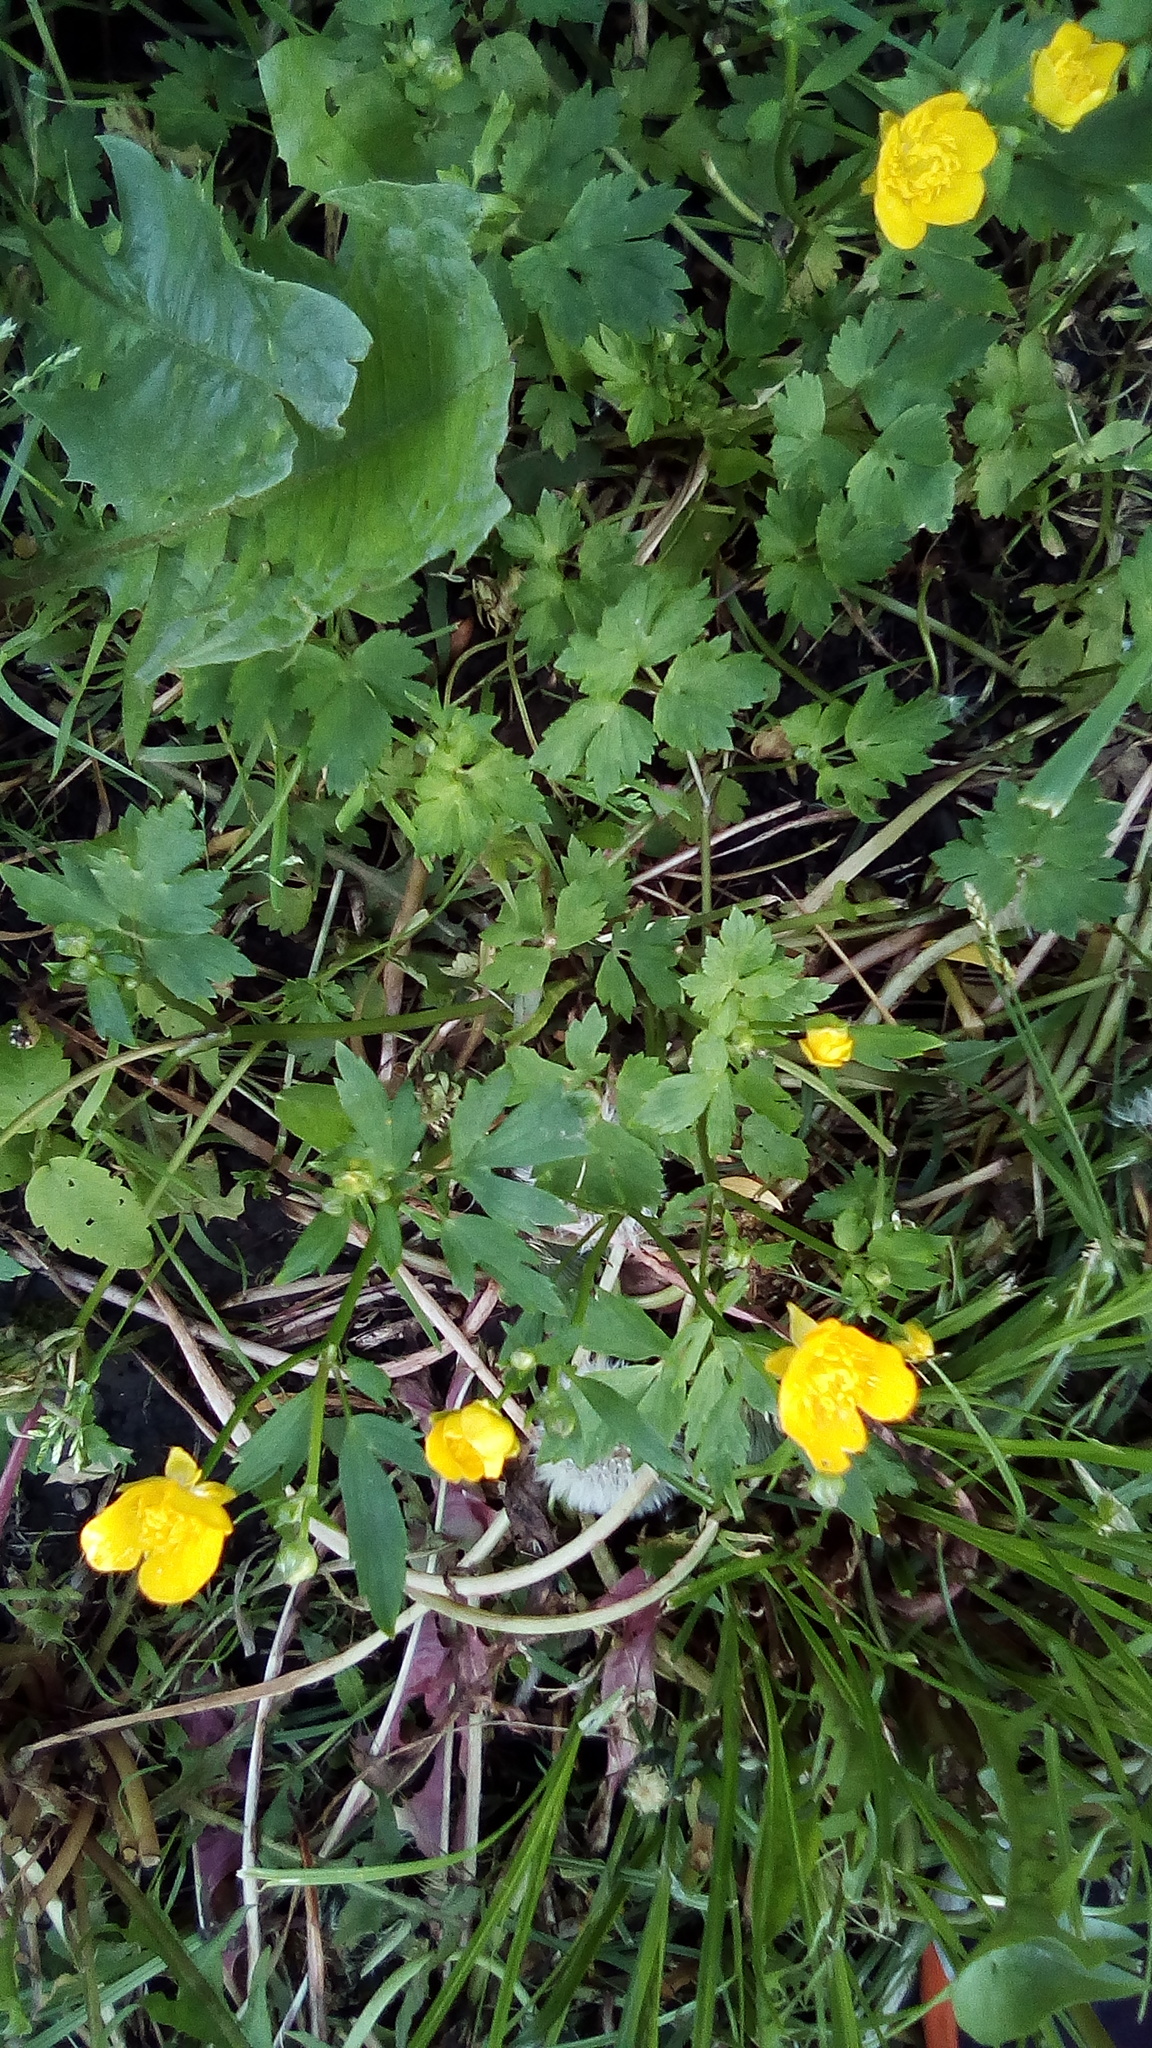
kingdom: Plantae
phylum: Tracheophyta
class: Magnoliopsida
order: Ranunculales
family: Ranunculaceae
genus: Ranunculus
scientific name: Ranunculus repens
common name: Creeping buttercup
